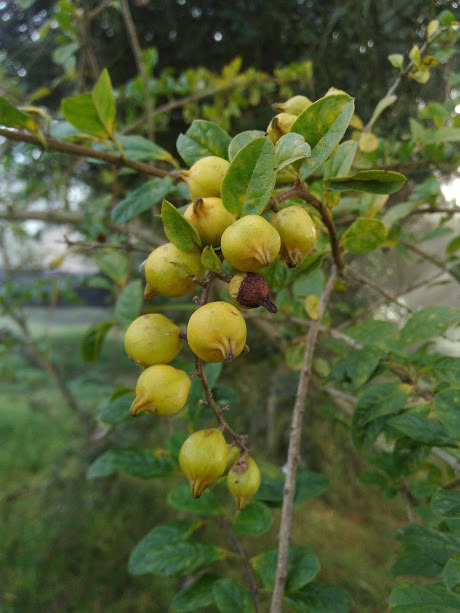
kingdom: Plantae
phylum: Tracheophyta
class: Magnoliopsida
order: Lamiales
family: Verbenaceae
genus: Duranta
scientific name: Duranta mutisii
